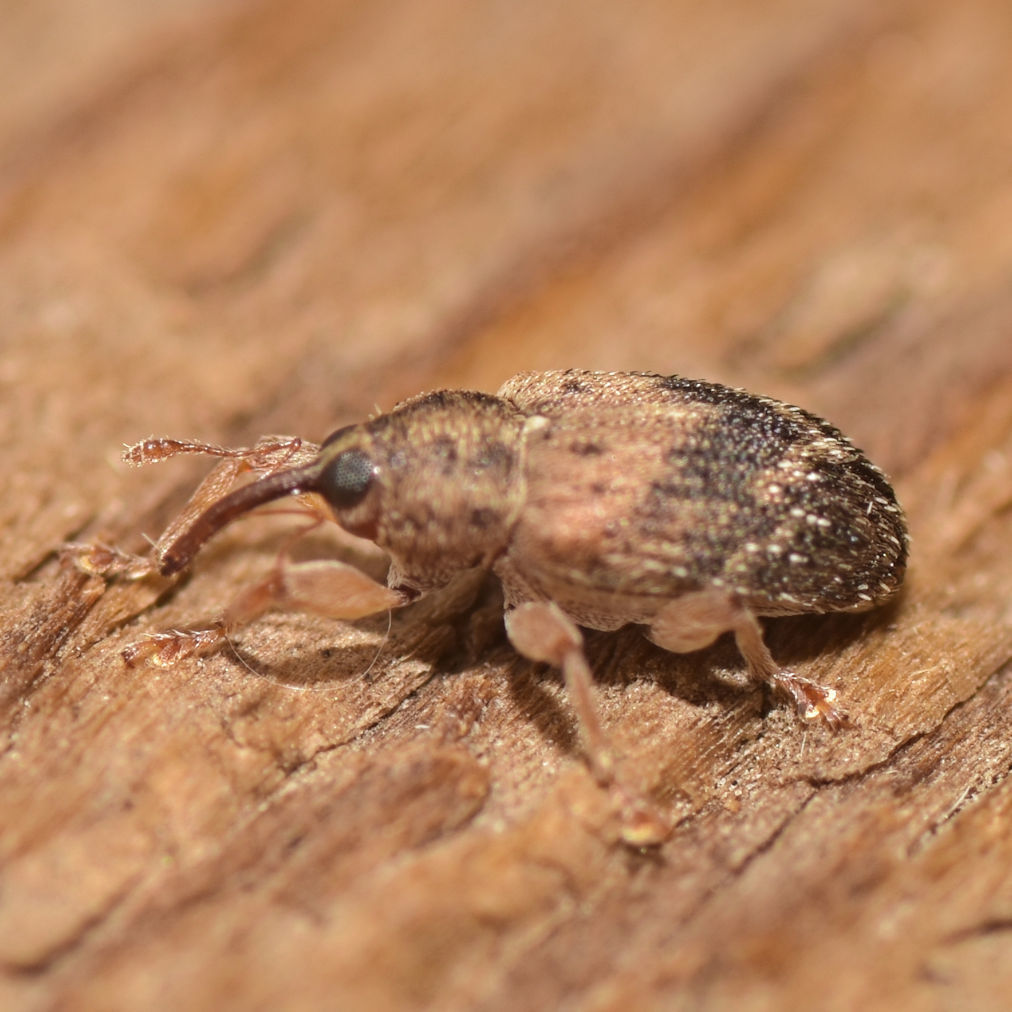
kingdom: Animalia
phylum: Arthropoda
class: Insecta
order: Coleoptera
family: Curculionidae
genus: Thysanocnemis
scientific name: Thysanocnemis bischoffi
